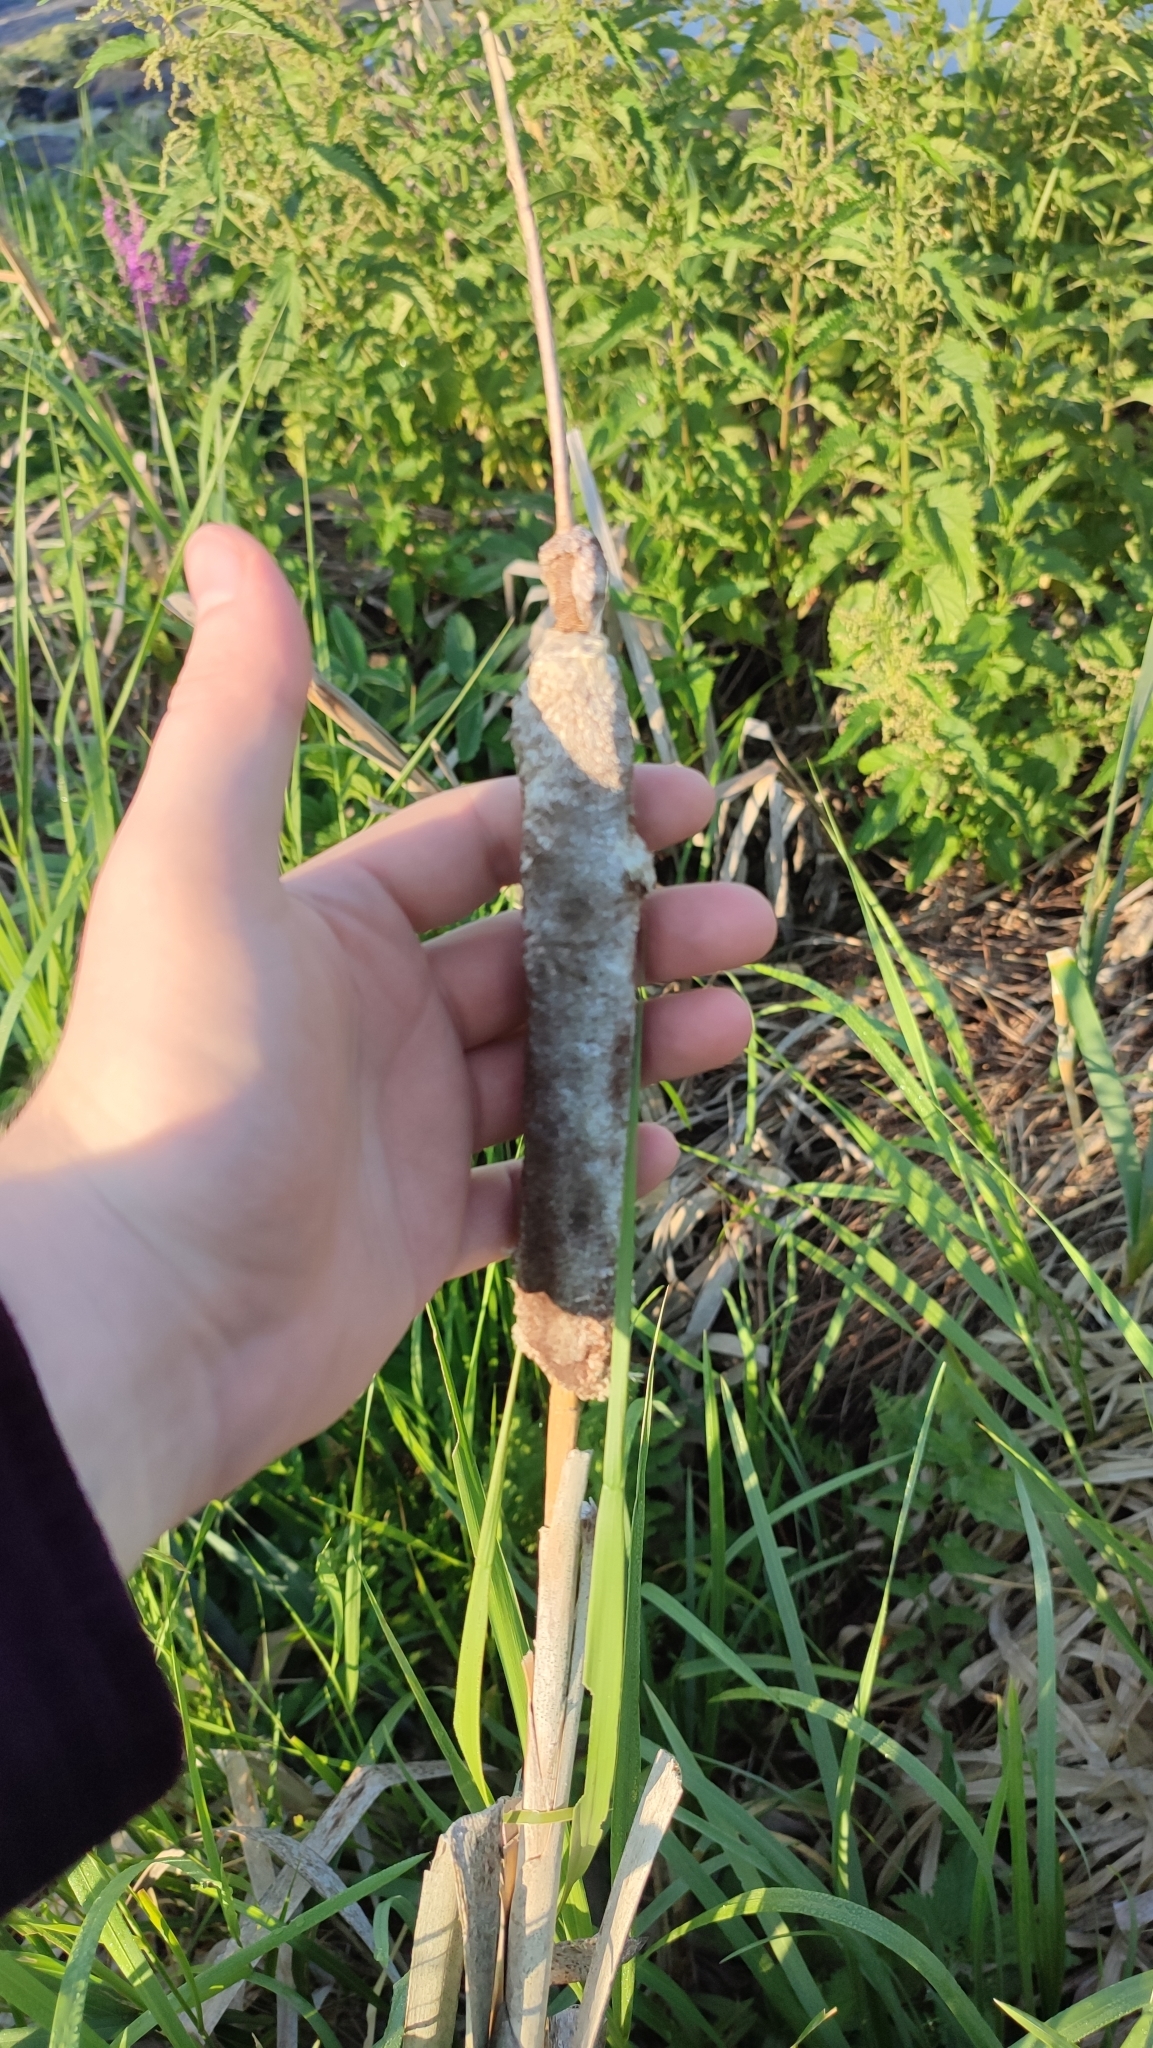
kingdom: Plantae
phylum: Tracheophyta
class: Liliopsida
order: Poales
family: Typhaceae
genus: Typha
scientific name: Typha incana
